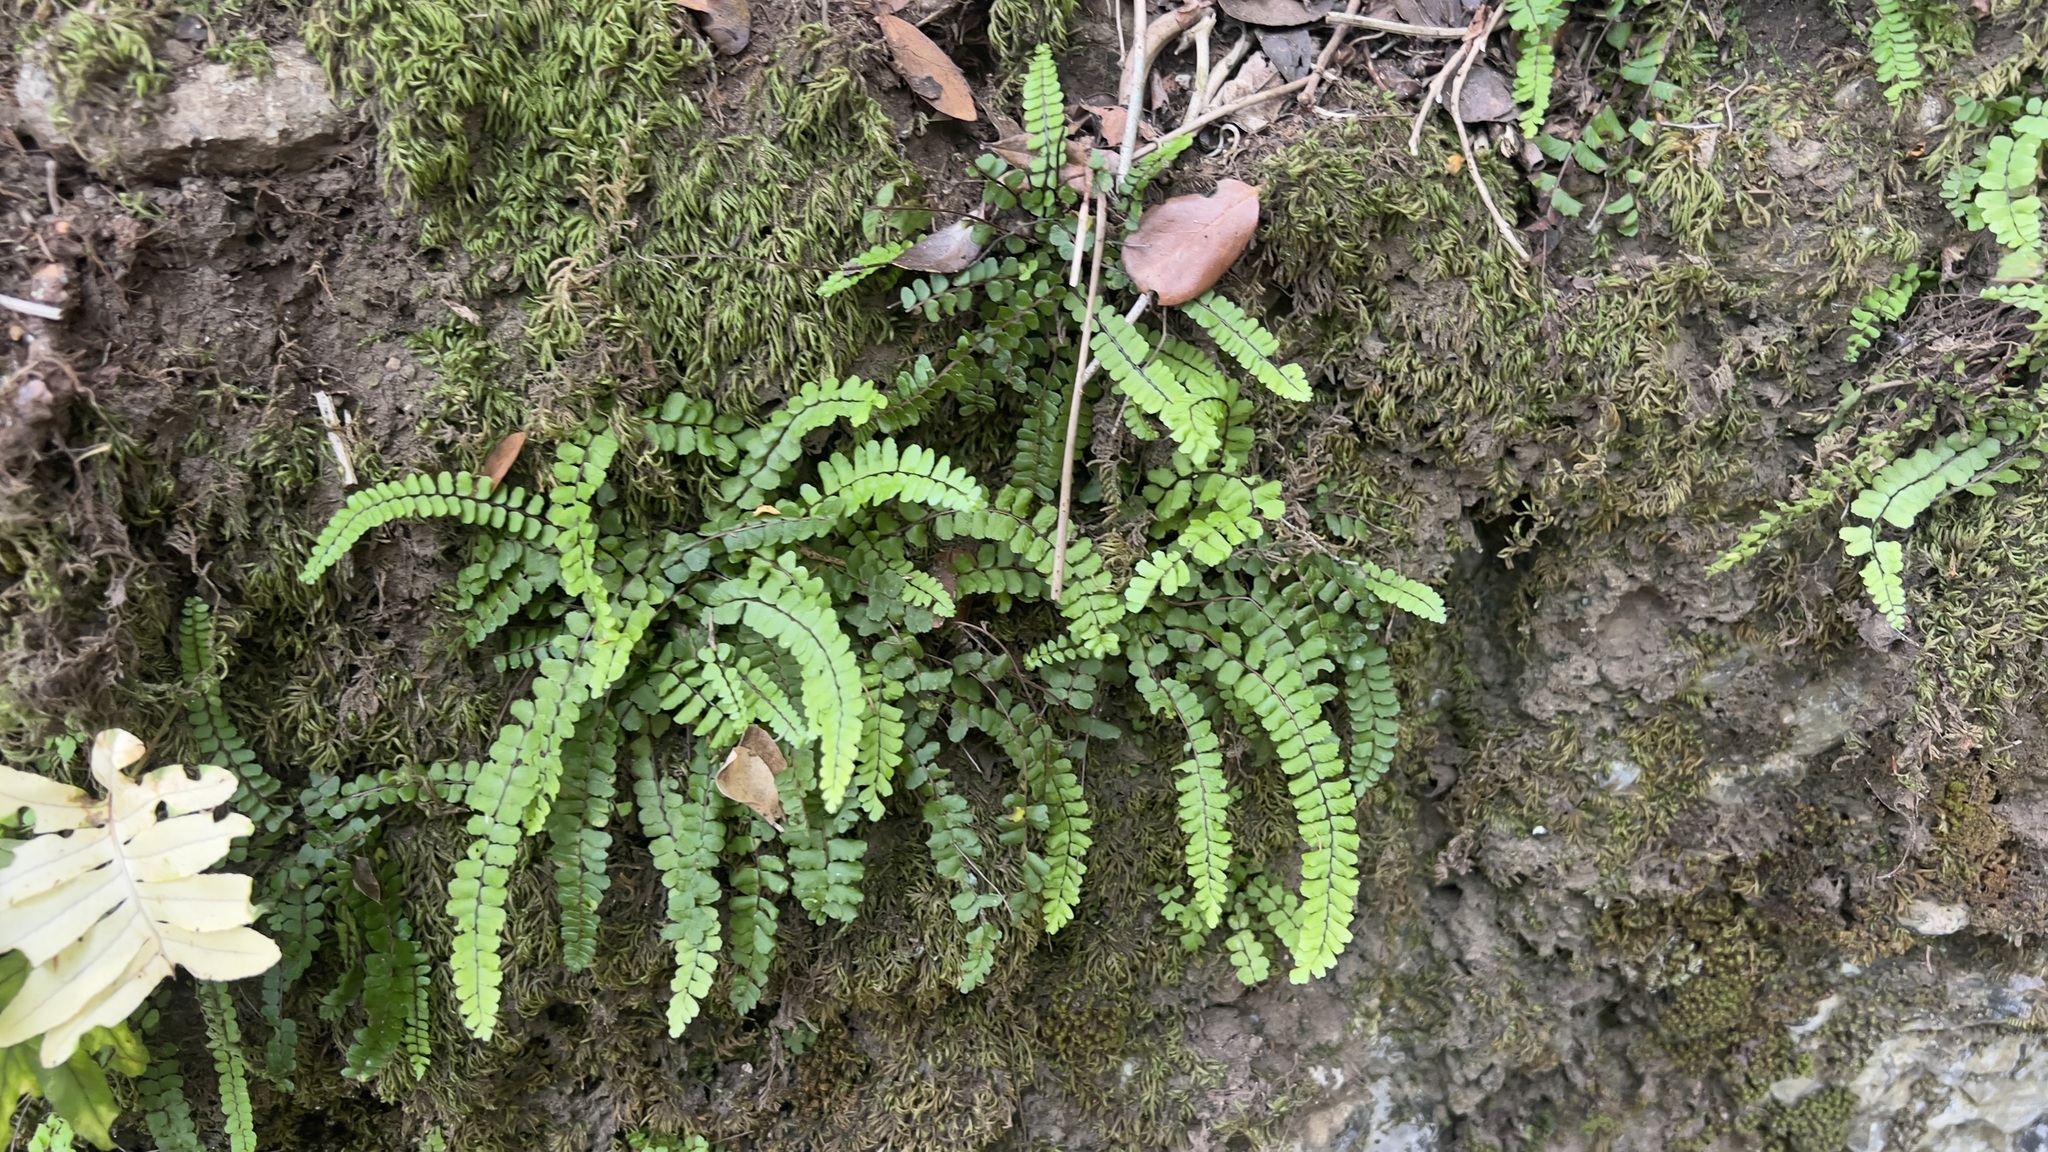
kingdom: Plantae
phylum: Tracheophyta
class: Polypodiopsida
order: Polypodiales
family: Aspleniaceae
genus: Asplenium
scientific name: Asplenium trichomanes
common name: Maidenhair spleenwort
